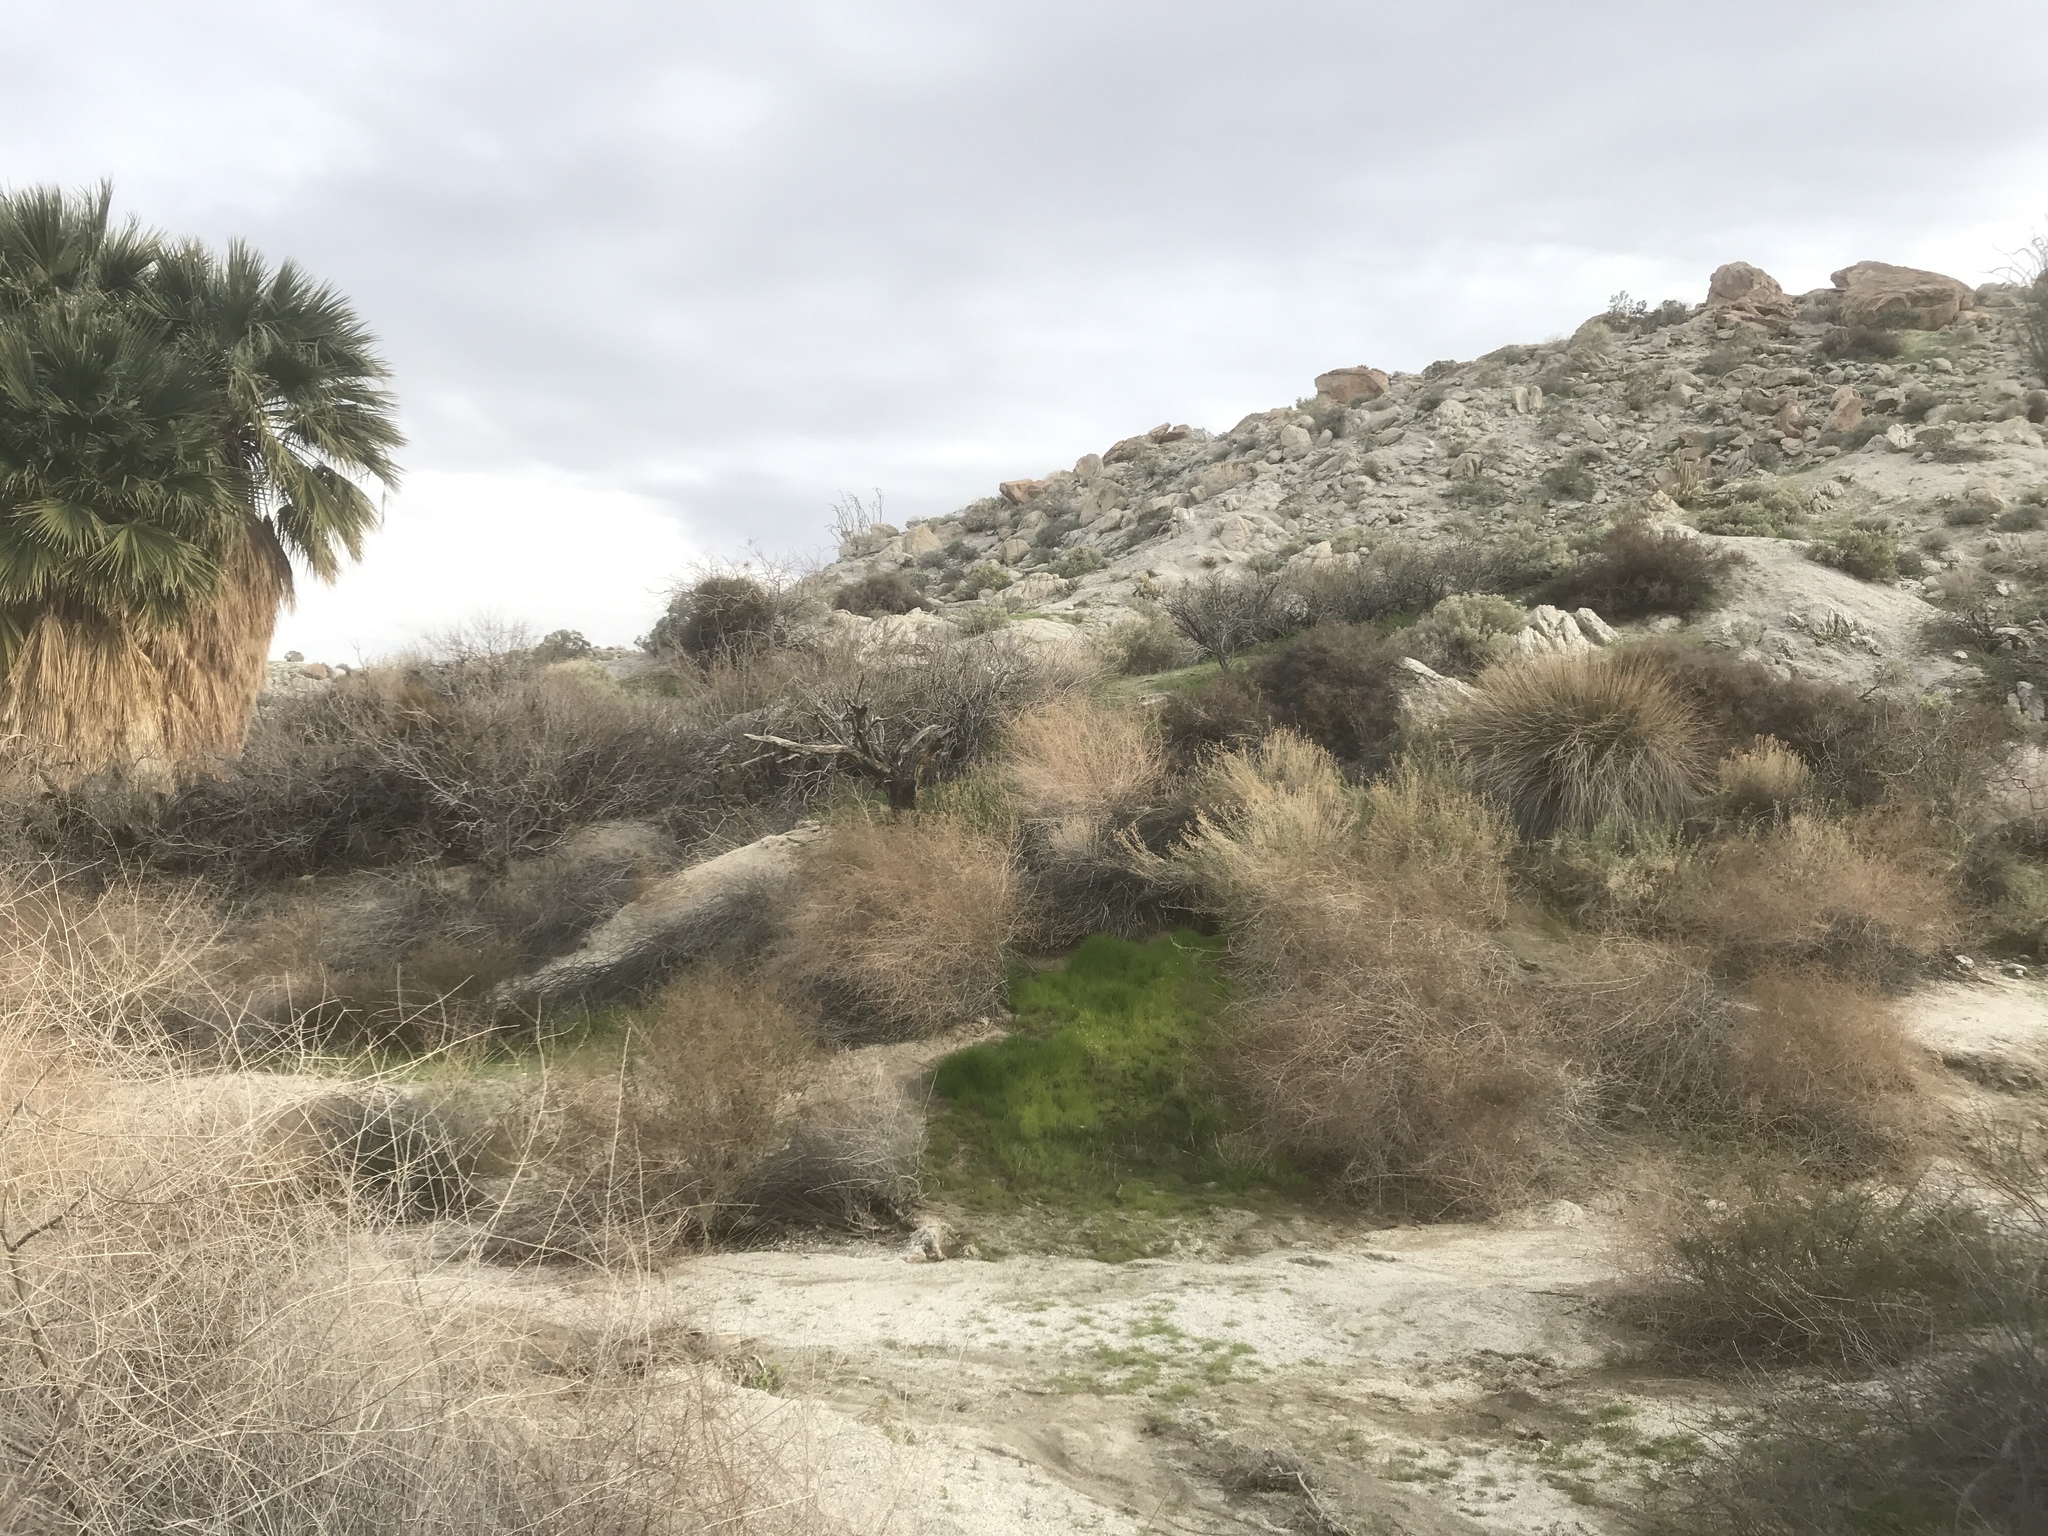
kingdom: Plantae
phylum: Tracheophyta
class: Liliopsida
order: Poales
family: Juncaceae
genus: Juncus
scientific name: Juncus acutus
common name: Sharp rush
